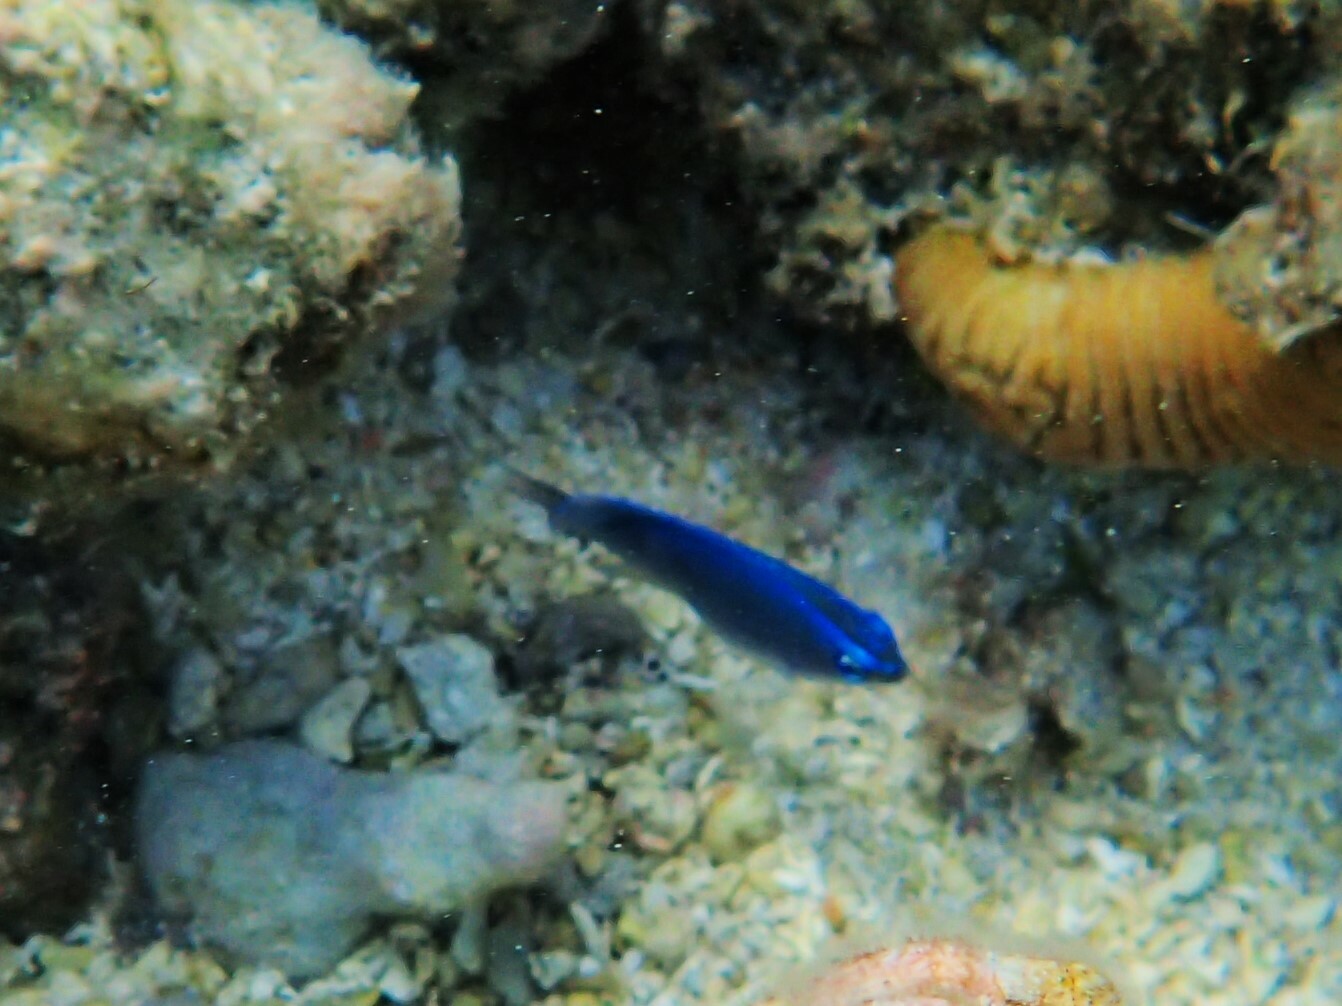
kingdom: Animalia
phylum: Chordata
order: Perciformes
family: Pomacentridae
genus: Chrysiptera
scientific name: Chrysiptera glauca
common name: Grey demoiselle
